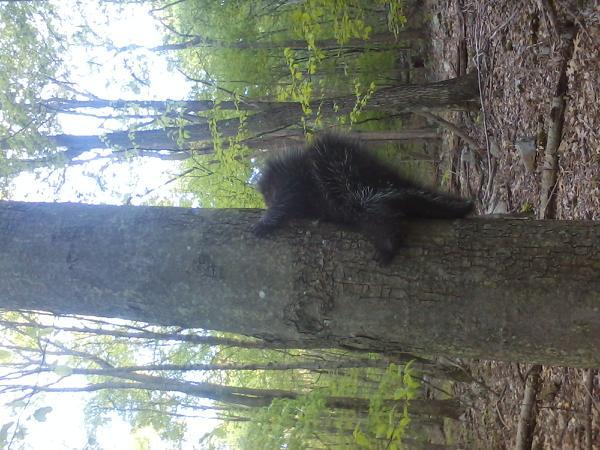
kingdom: Animalia
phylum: Chordata
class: Mammalia
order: Rodentia
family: Erethizontidae
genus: Erethizon
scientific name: Erethizon dorsatus
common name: North american porcupine
